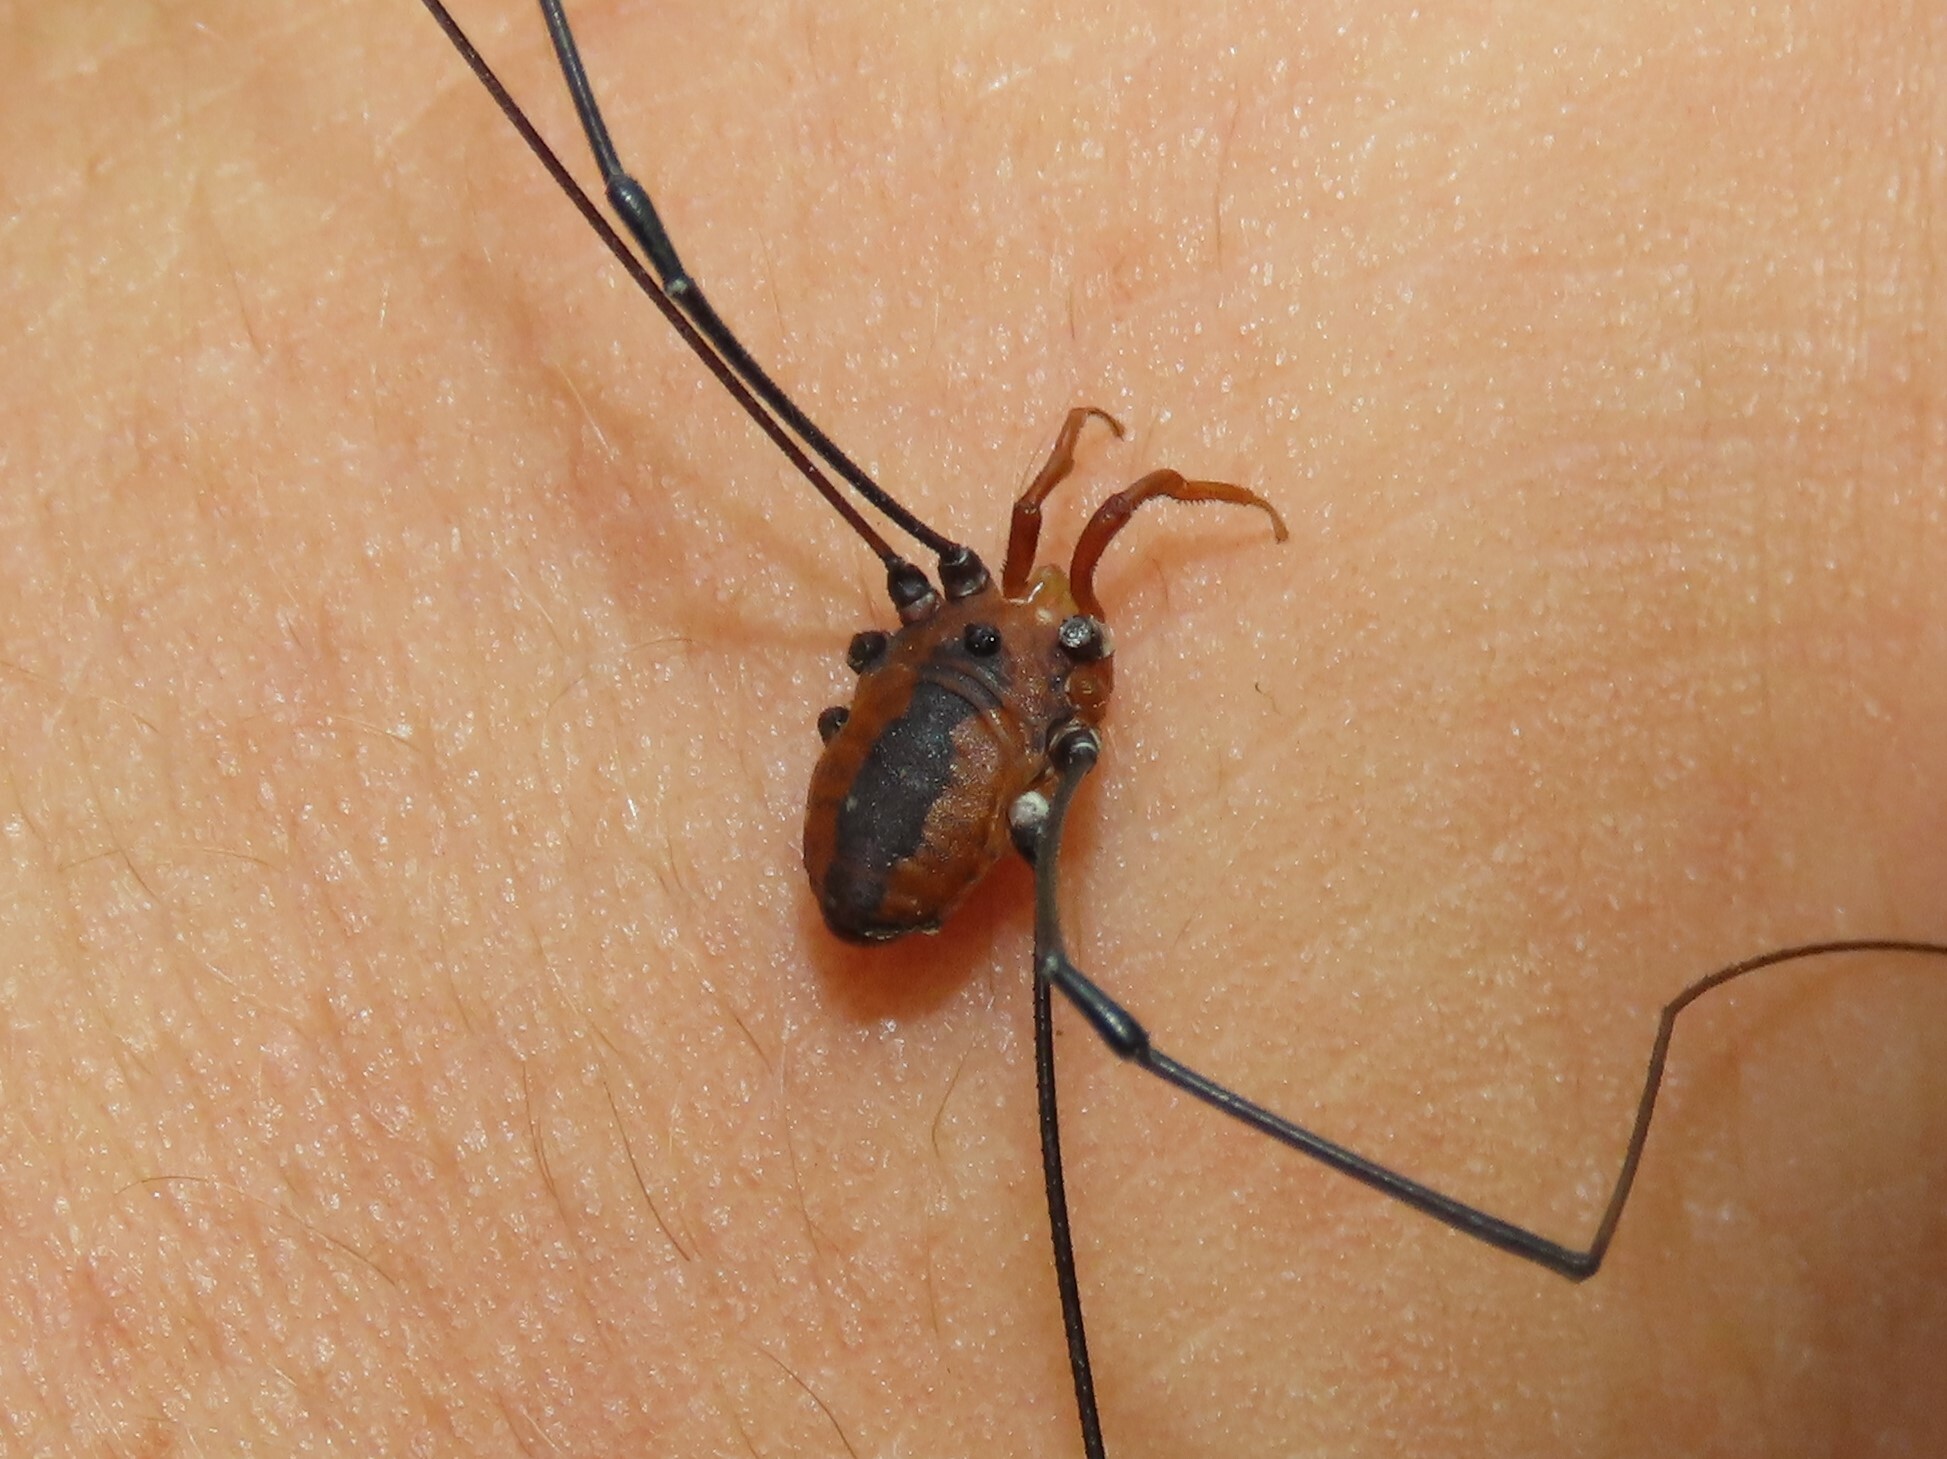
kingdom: Animalia
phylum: Arthropoda
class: Arachnida
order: Opiliones
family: Sclerosomatidae
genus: Leiobunum
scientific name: Leiobunum vittatum
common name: Eastern harvestman
